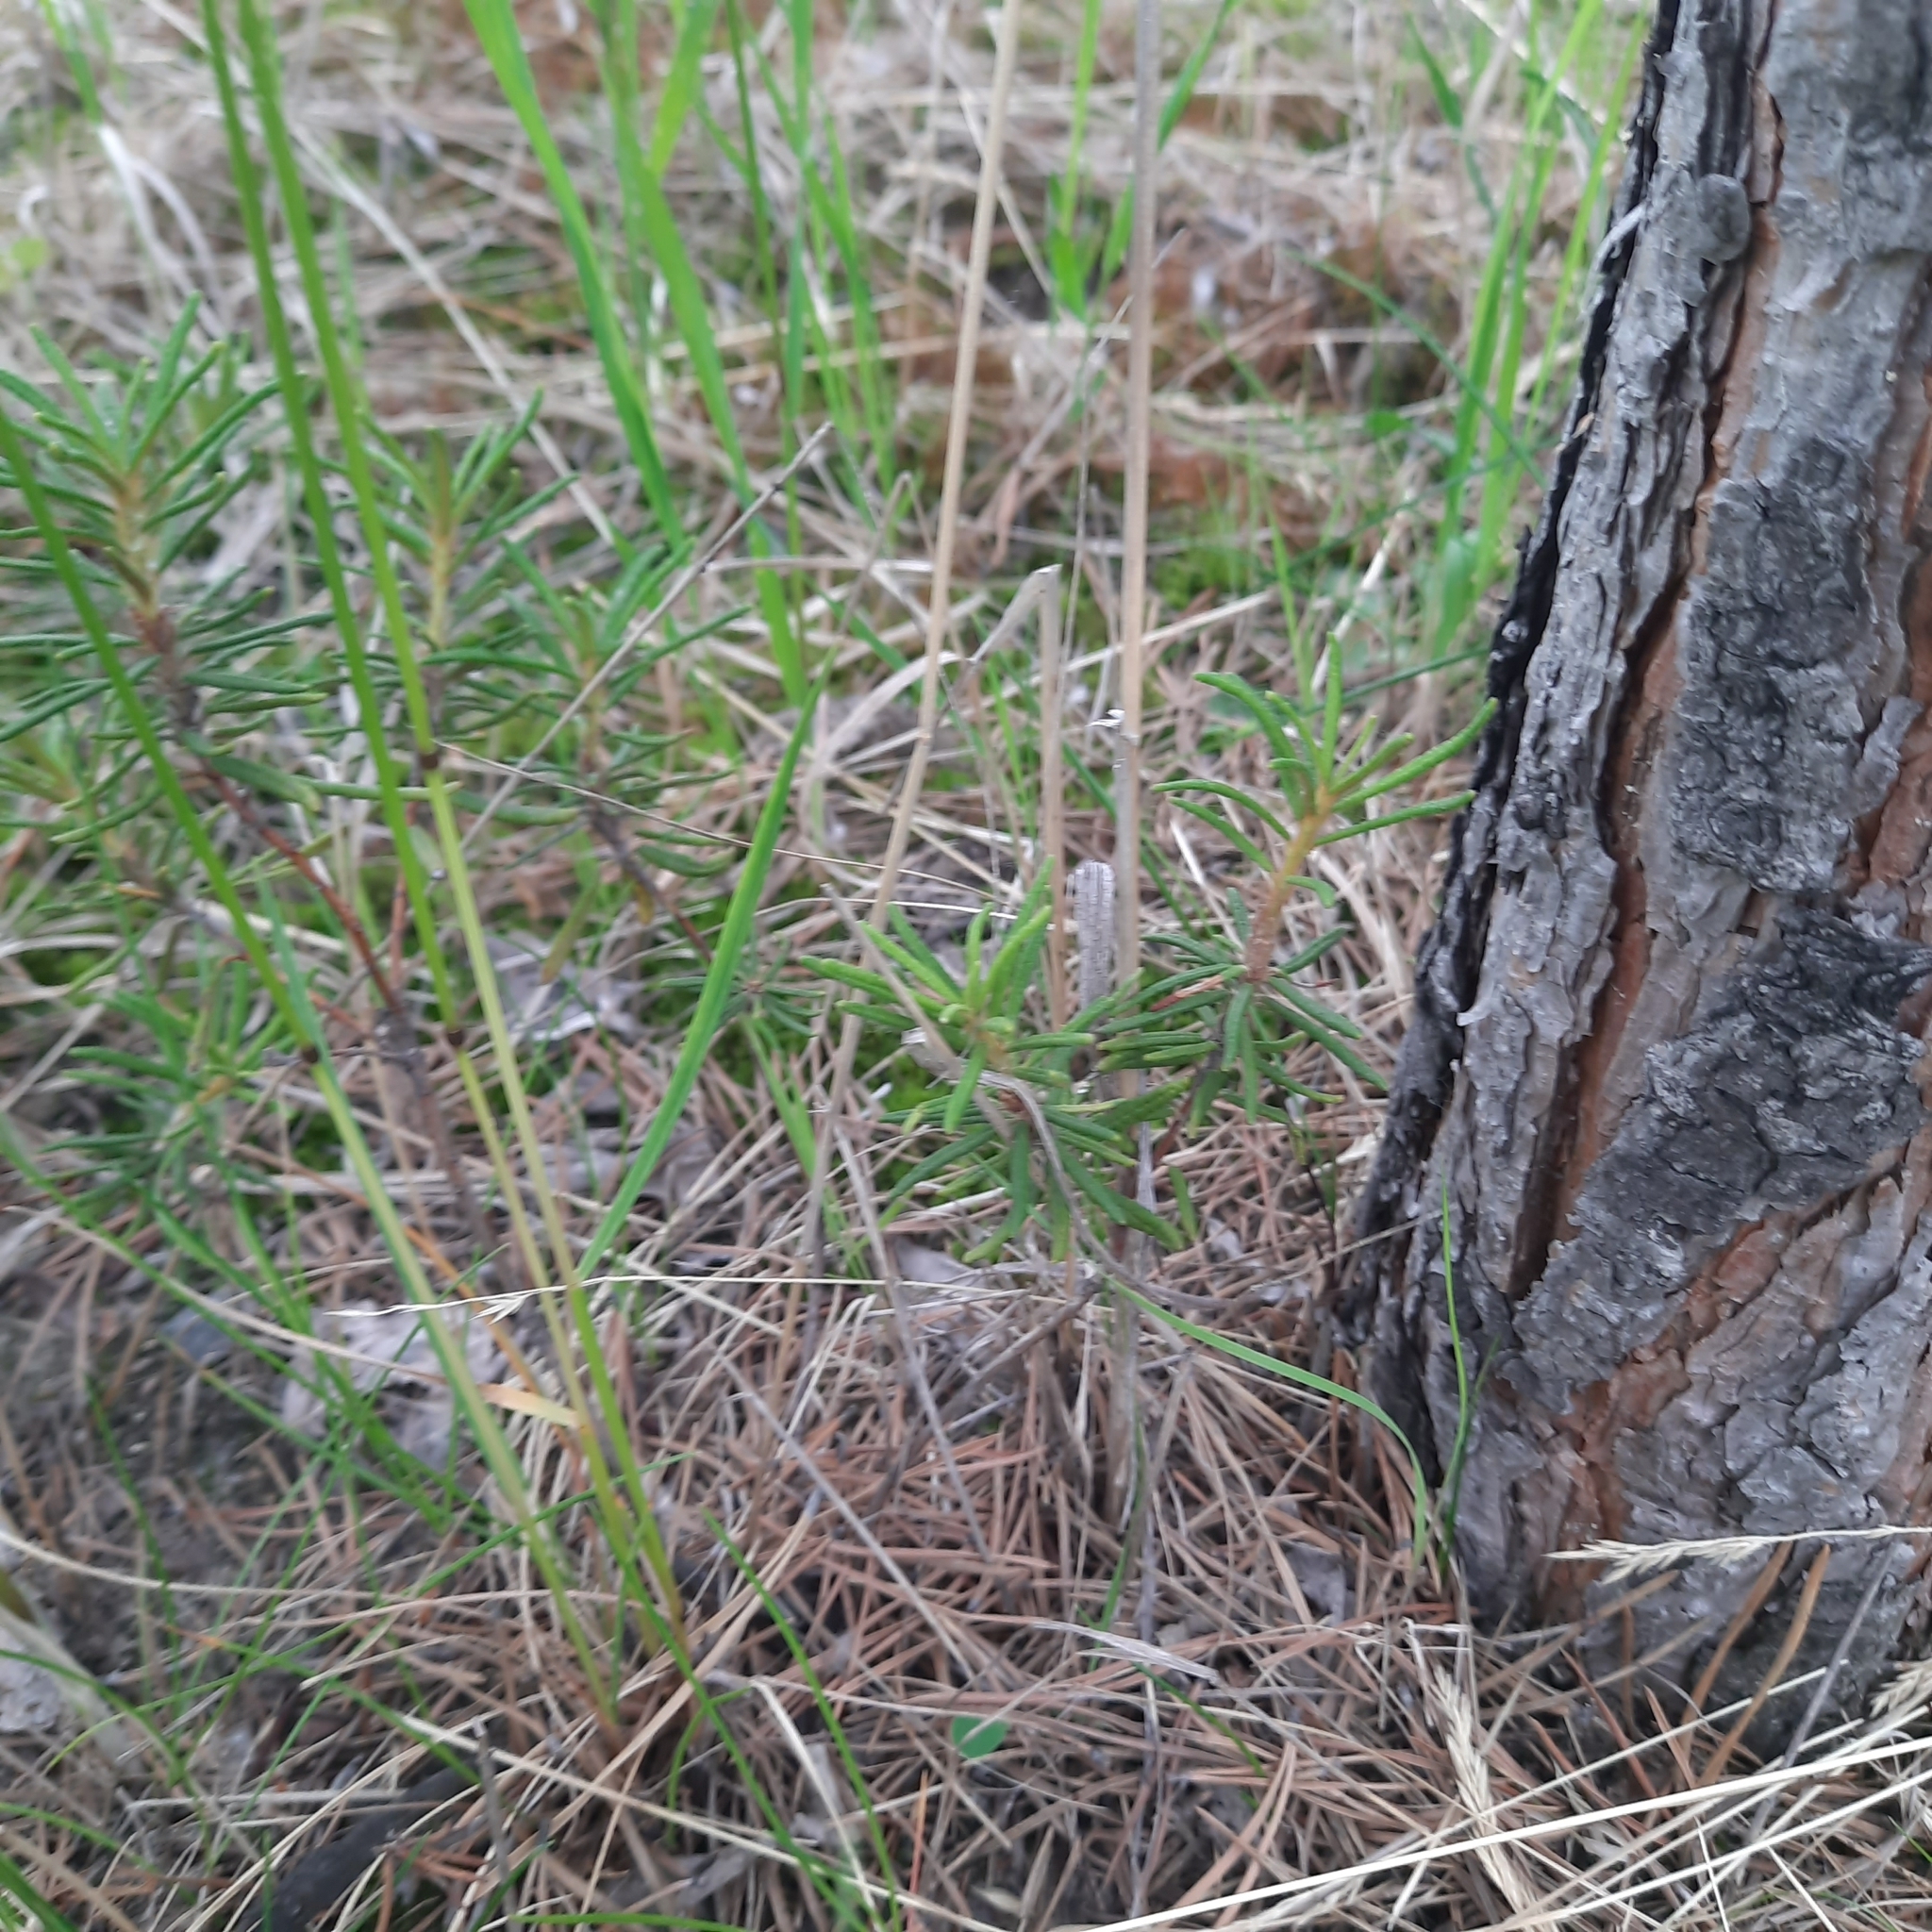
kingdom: Plantae
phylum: Tracheophyta
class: Magnoliopsida
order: Ericales
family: Ericaceae
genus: Rhododendron
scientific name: Rhododendron tomentosum
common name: Marsh labrador tea
